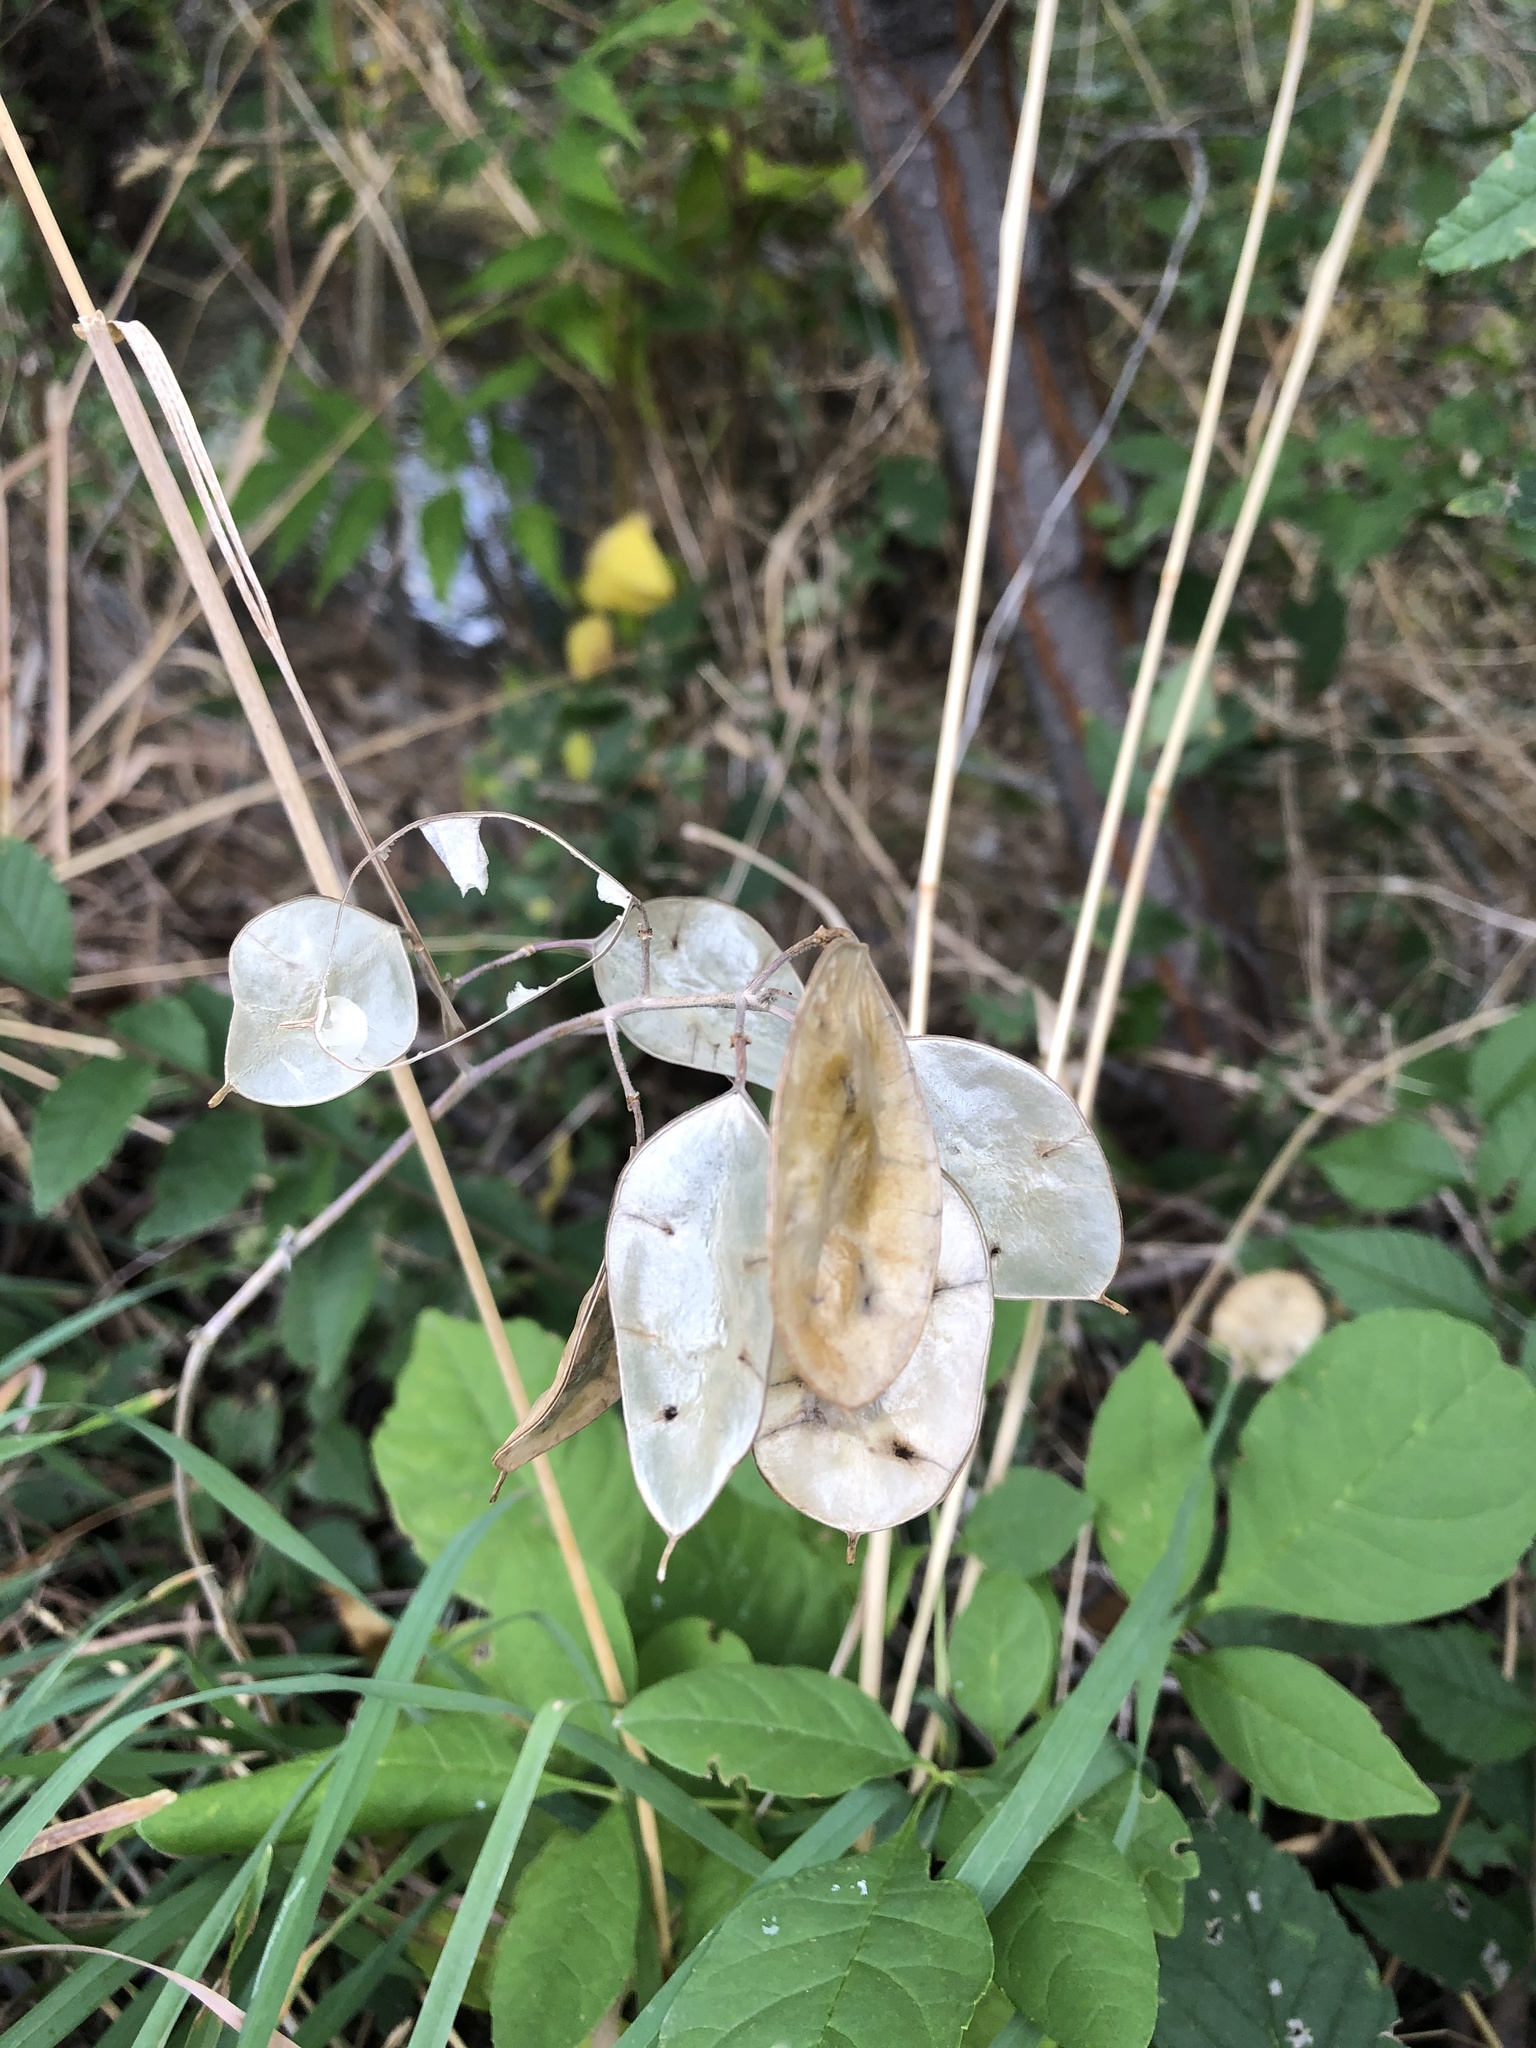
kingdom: Plantae
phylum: Tracheophyta
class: Magnoliopsida
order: Brassicales
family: Brassicaceae
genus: Lunaria
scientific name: Lunaria annua
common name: Honesty
